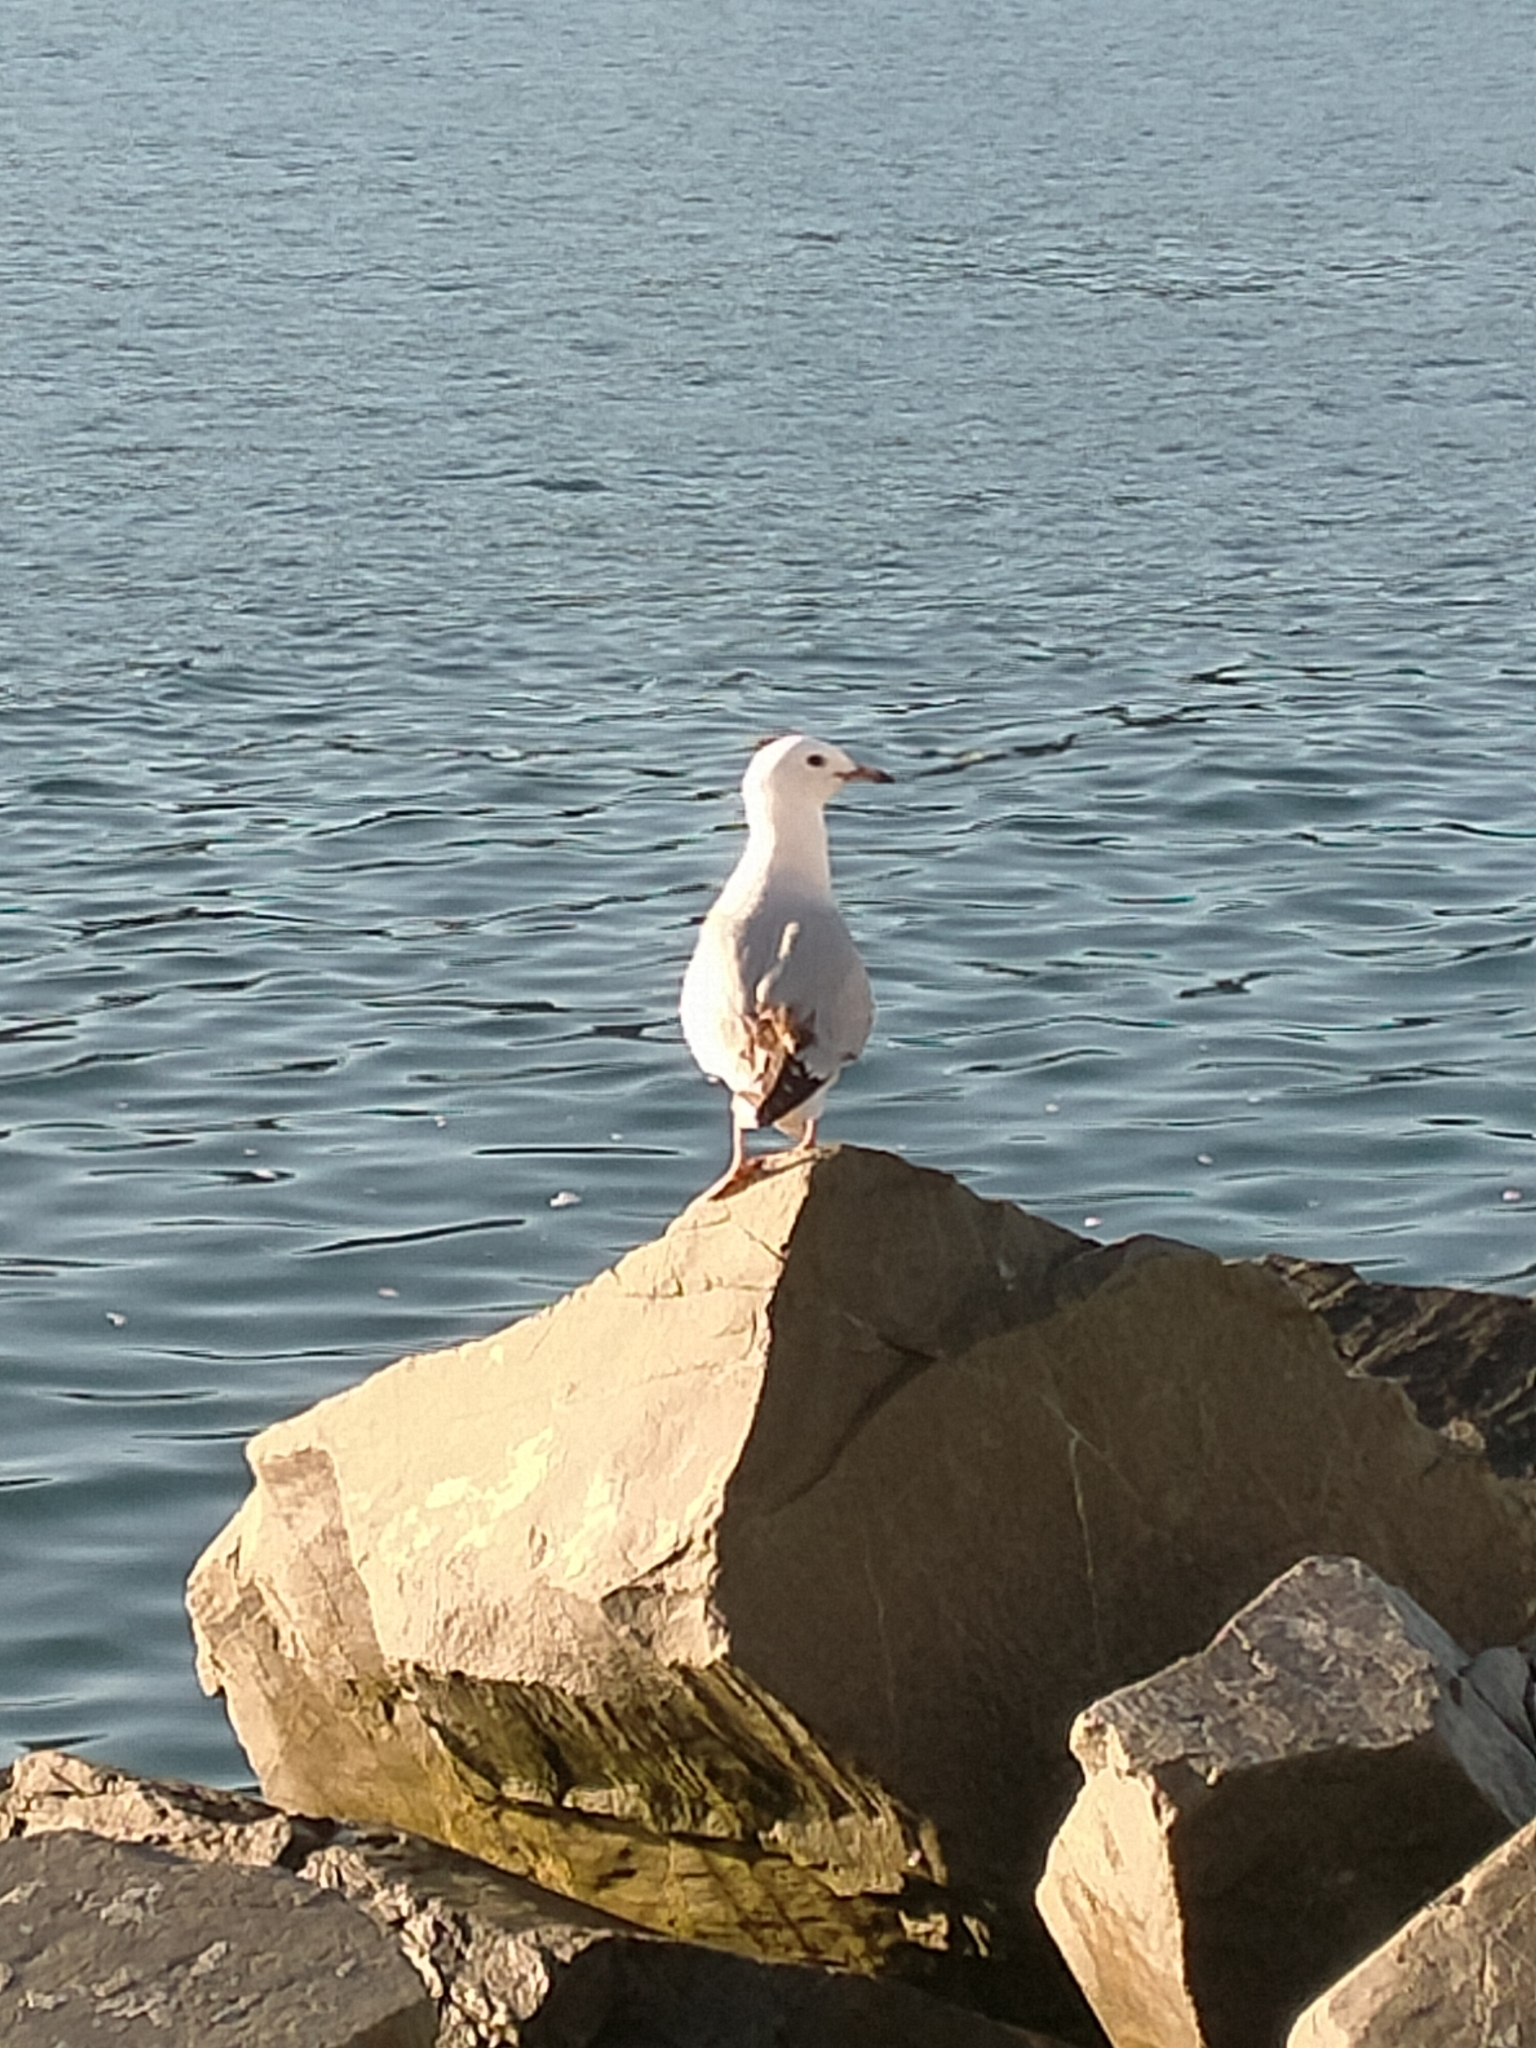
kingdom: Animalia
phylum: Chordata
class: Aves
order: Charadriiformes
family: Laridae
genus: Chroicocephalus
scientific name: Chroicocephalus novaehollandiae
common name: Silver gull
